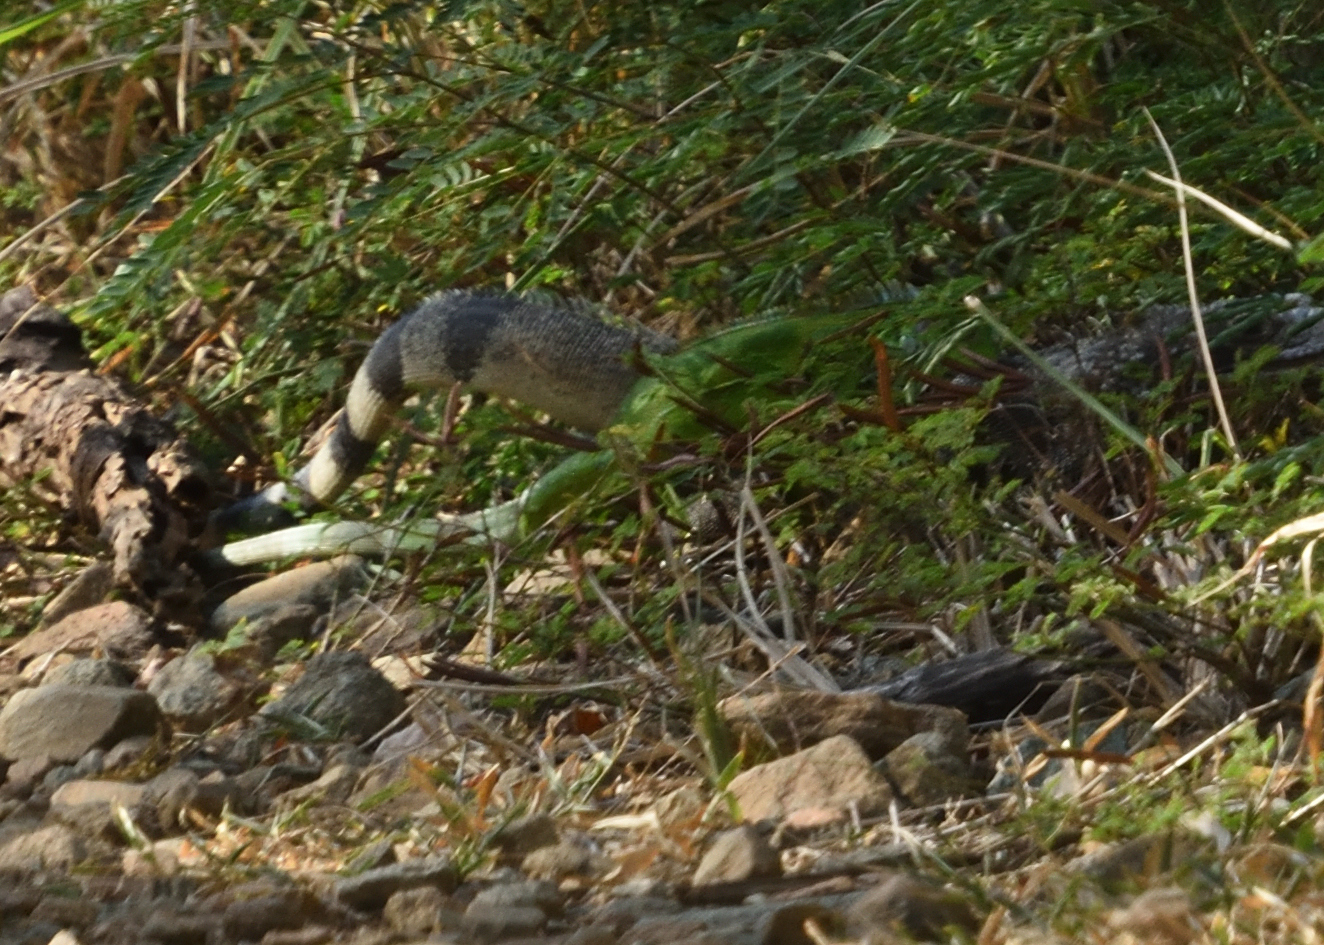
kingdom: Animalia
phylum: Chordata
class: Squamata
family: Iguanidae
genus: Iguana
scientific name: Iguana iguana
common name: Green iguana
